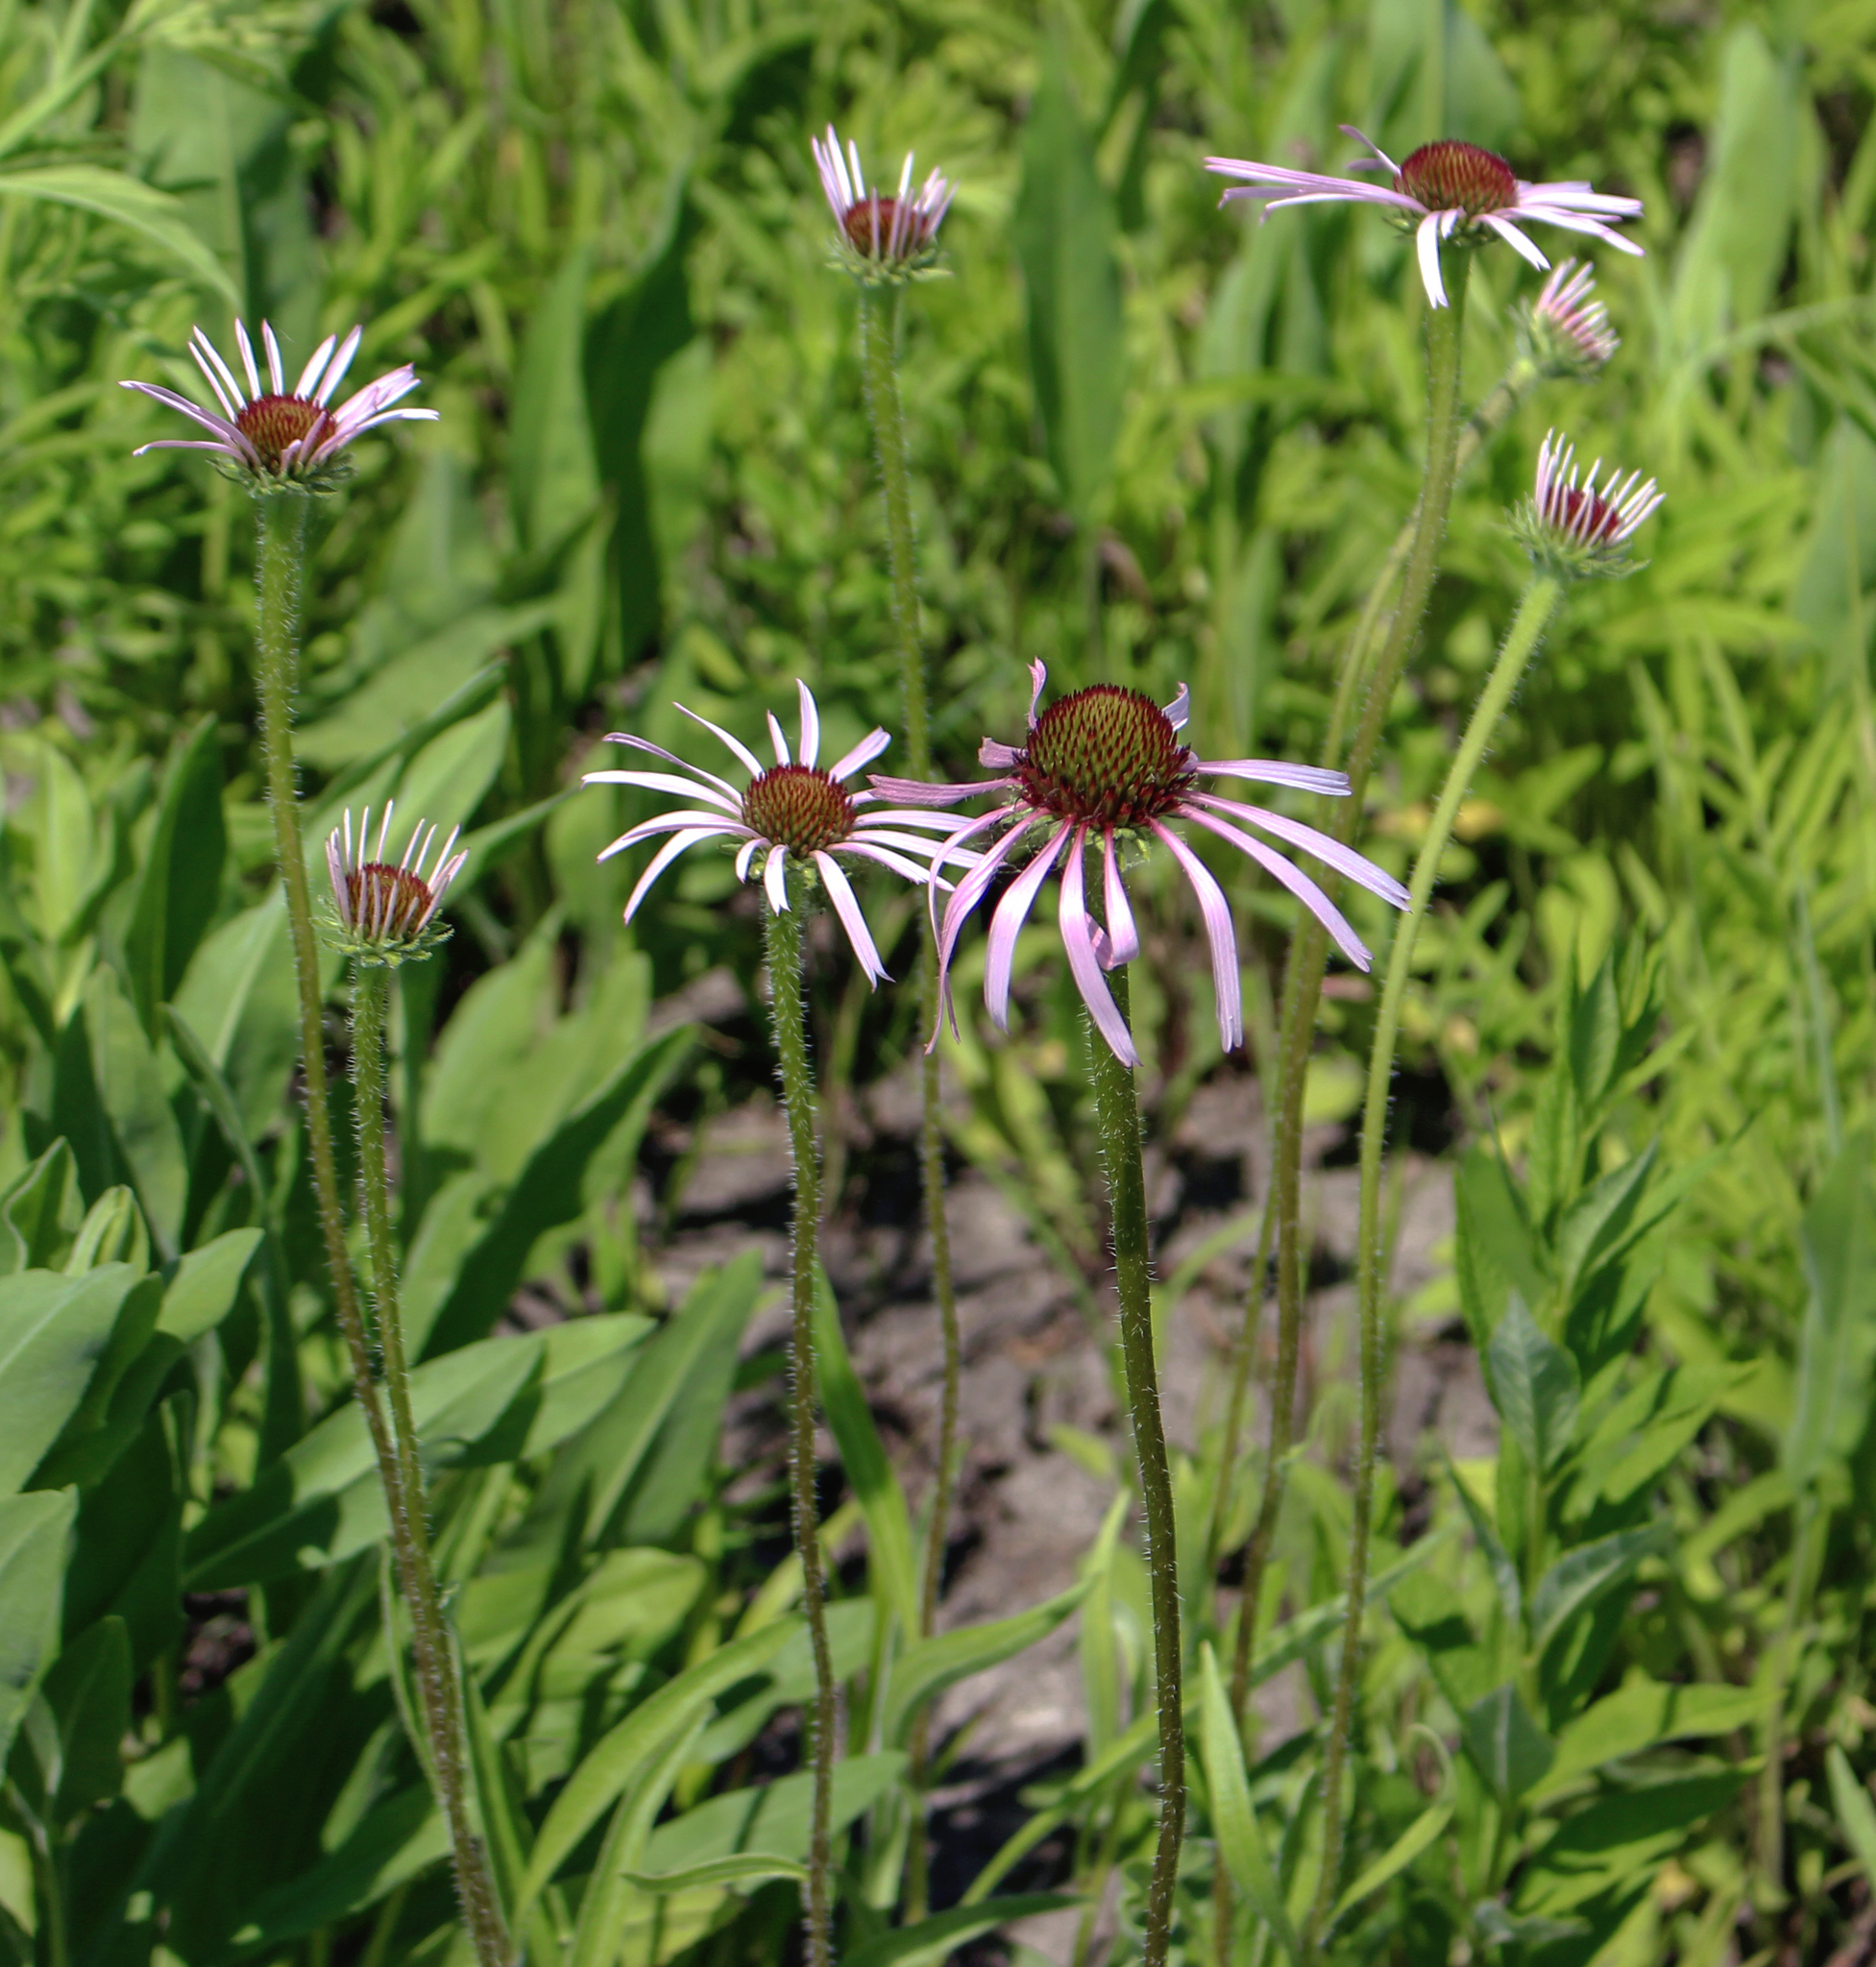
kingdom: Plantae
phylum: Tracheophyta
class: Magnoliopsida
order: Asterales
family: Asteraceae
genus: Echinacea
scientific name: Echinacea pallida
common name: Pale echinacea
